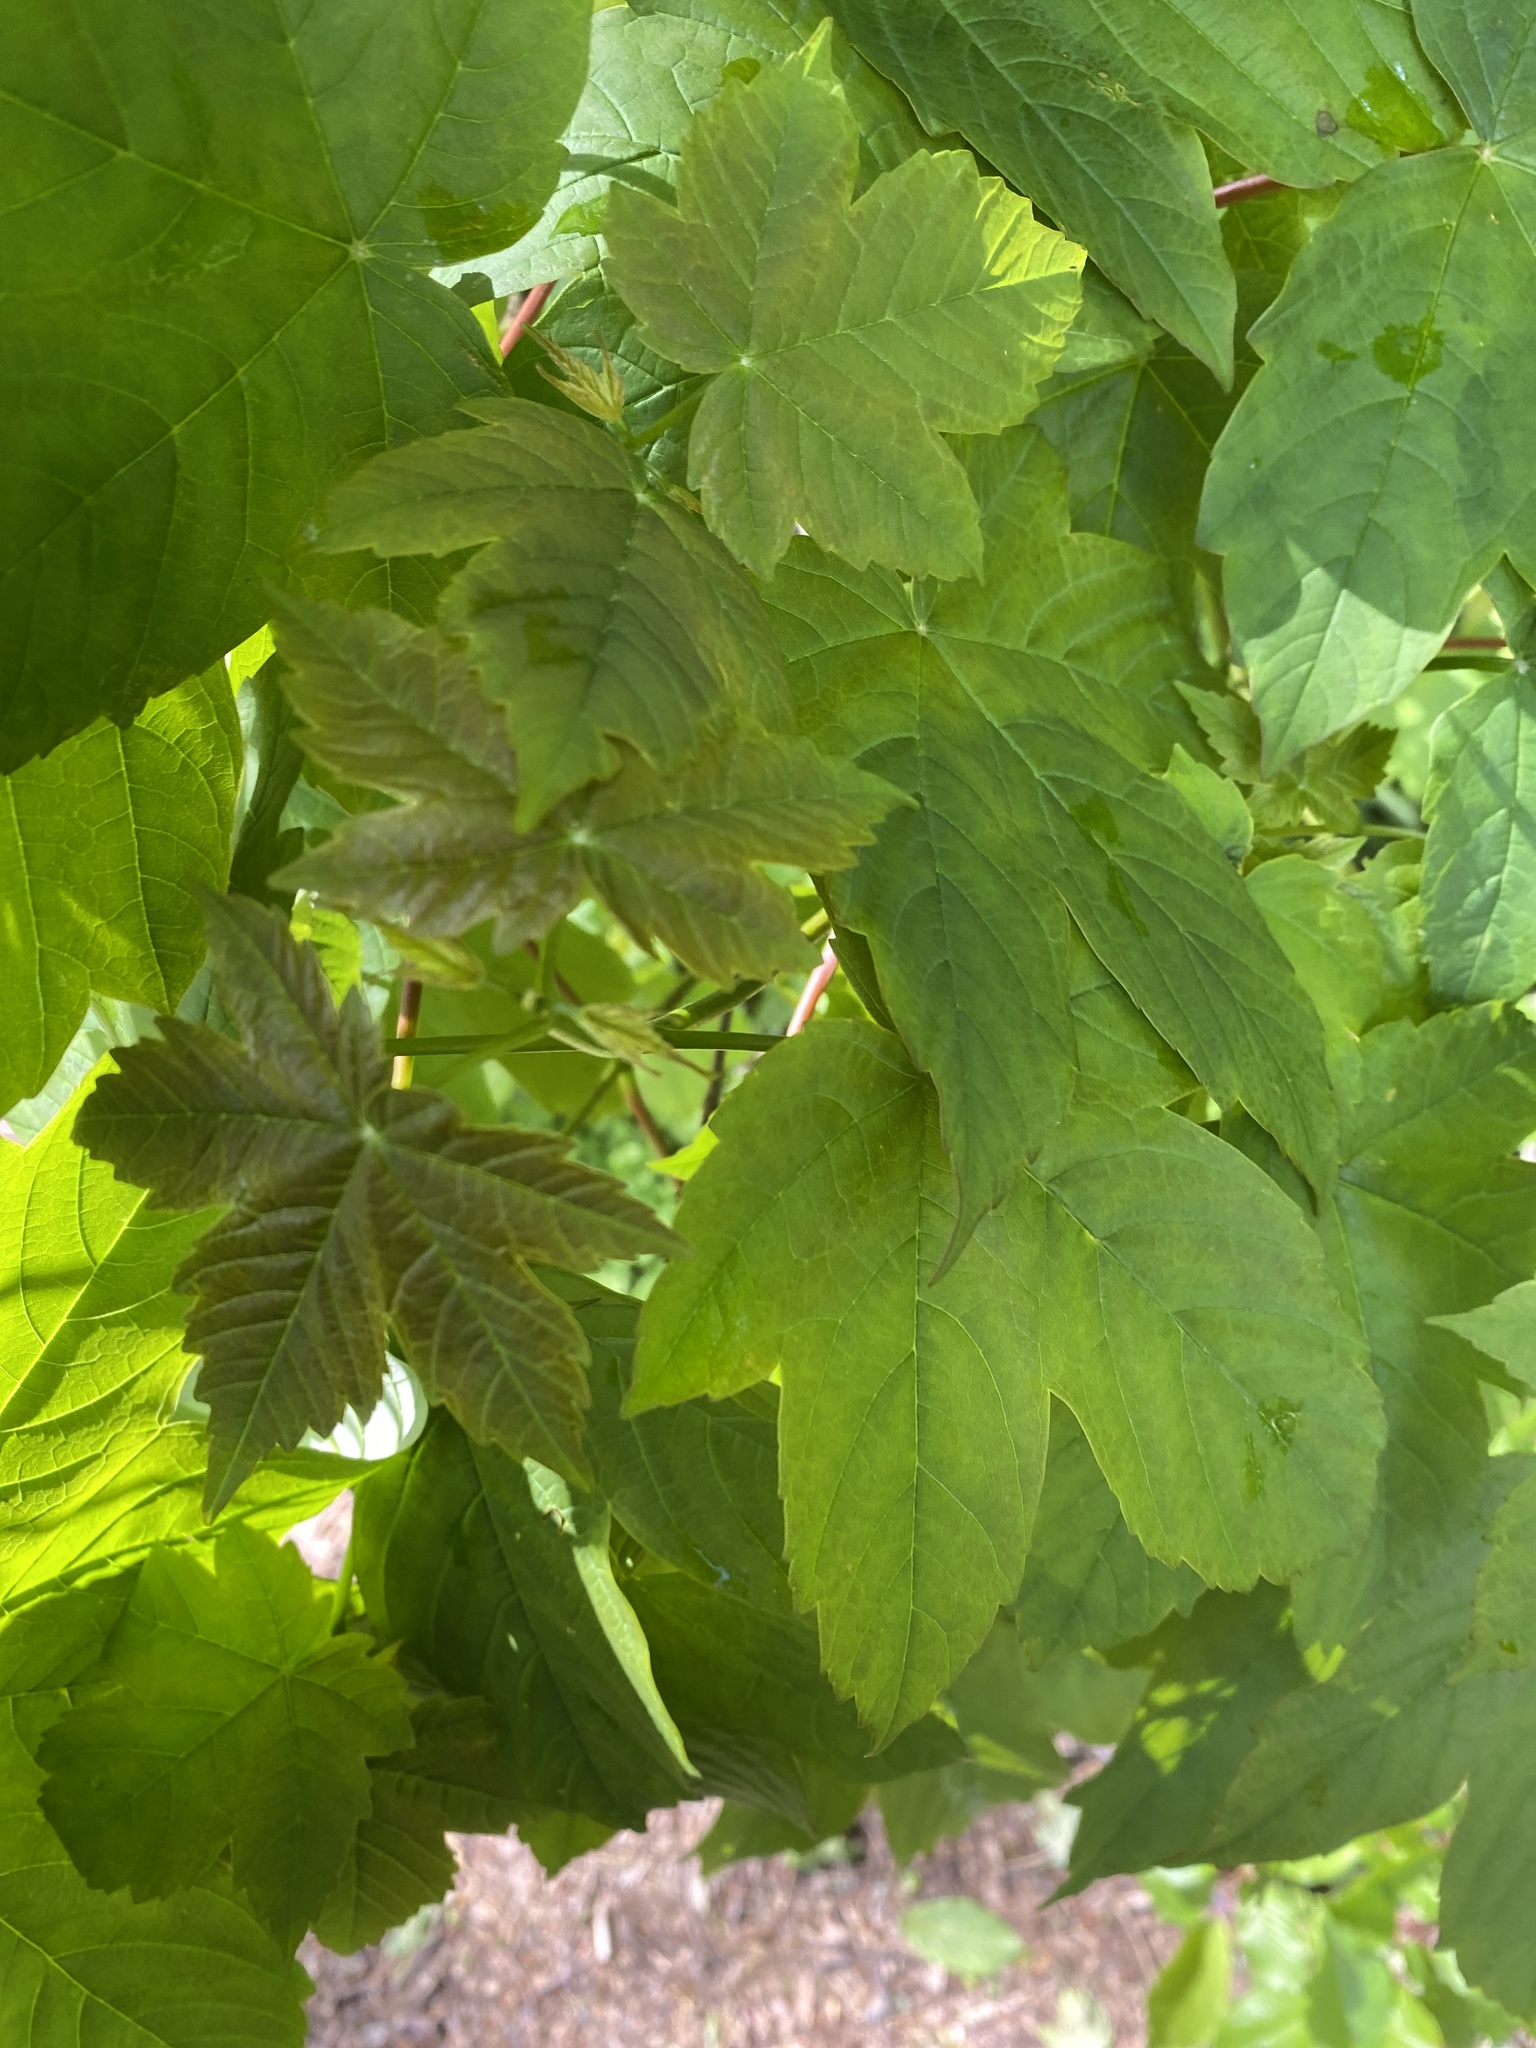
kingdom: Plantae
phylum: Tracheophyta
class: Magnoliopsida
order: Sapindales
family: Sapindaceae
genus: Acer
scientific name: Acer pseudoplatanus
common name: Sycamore
